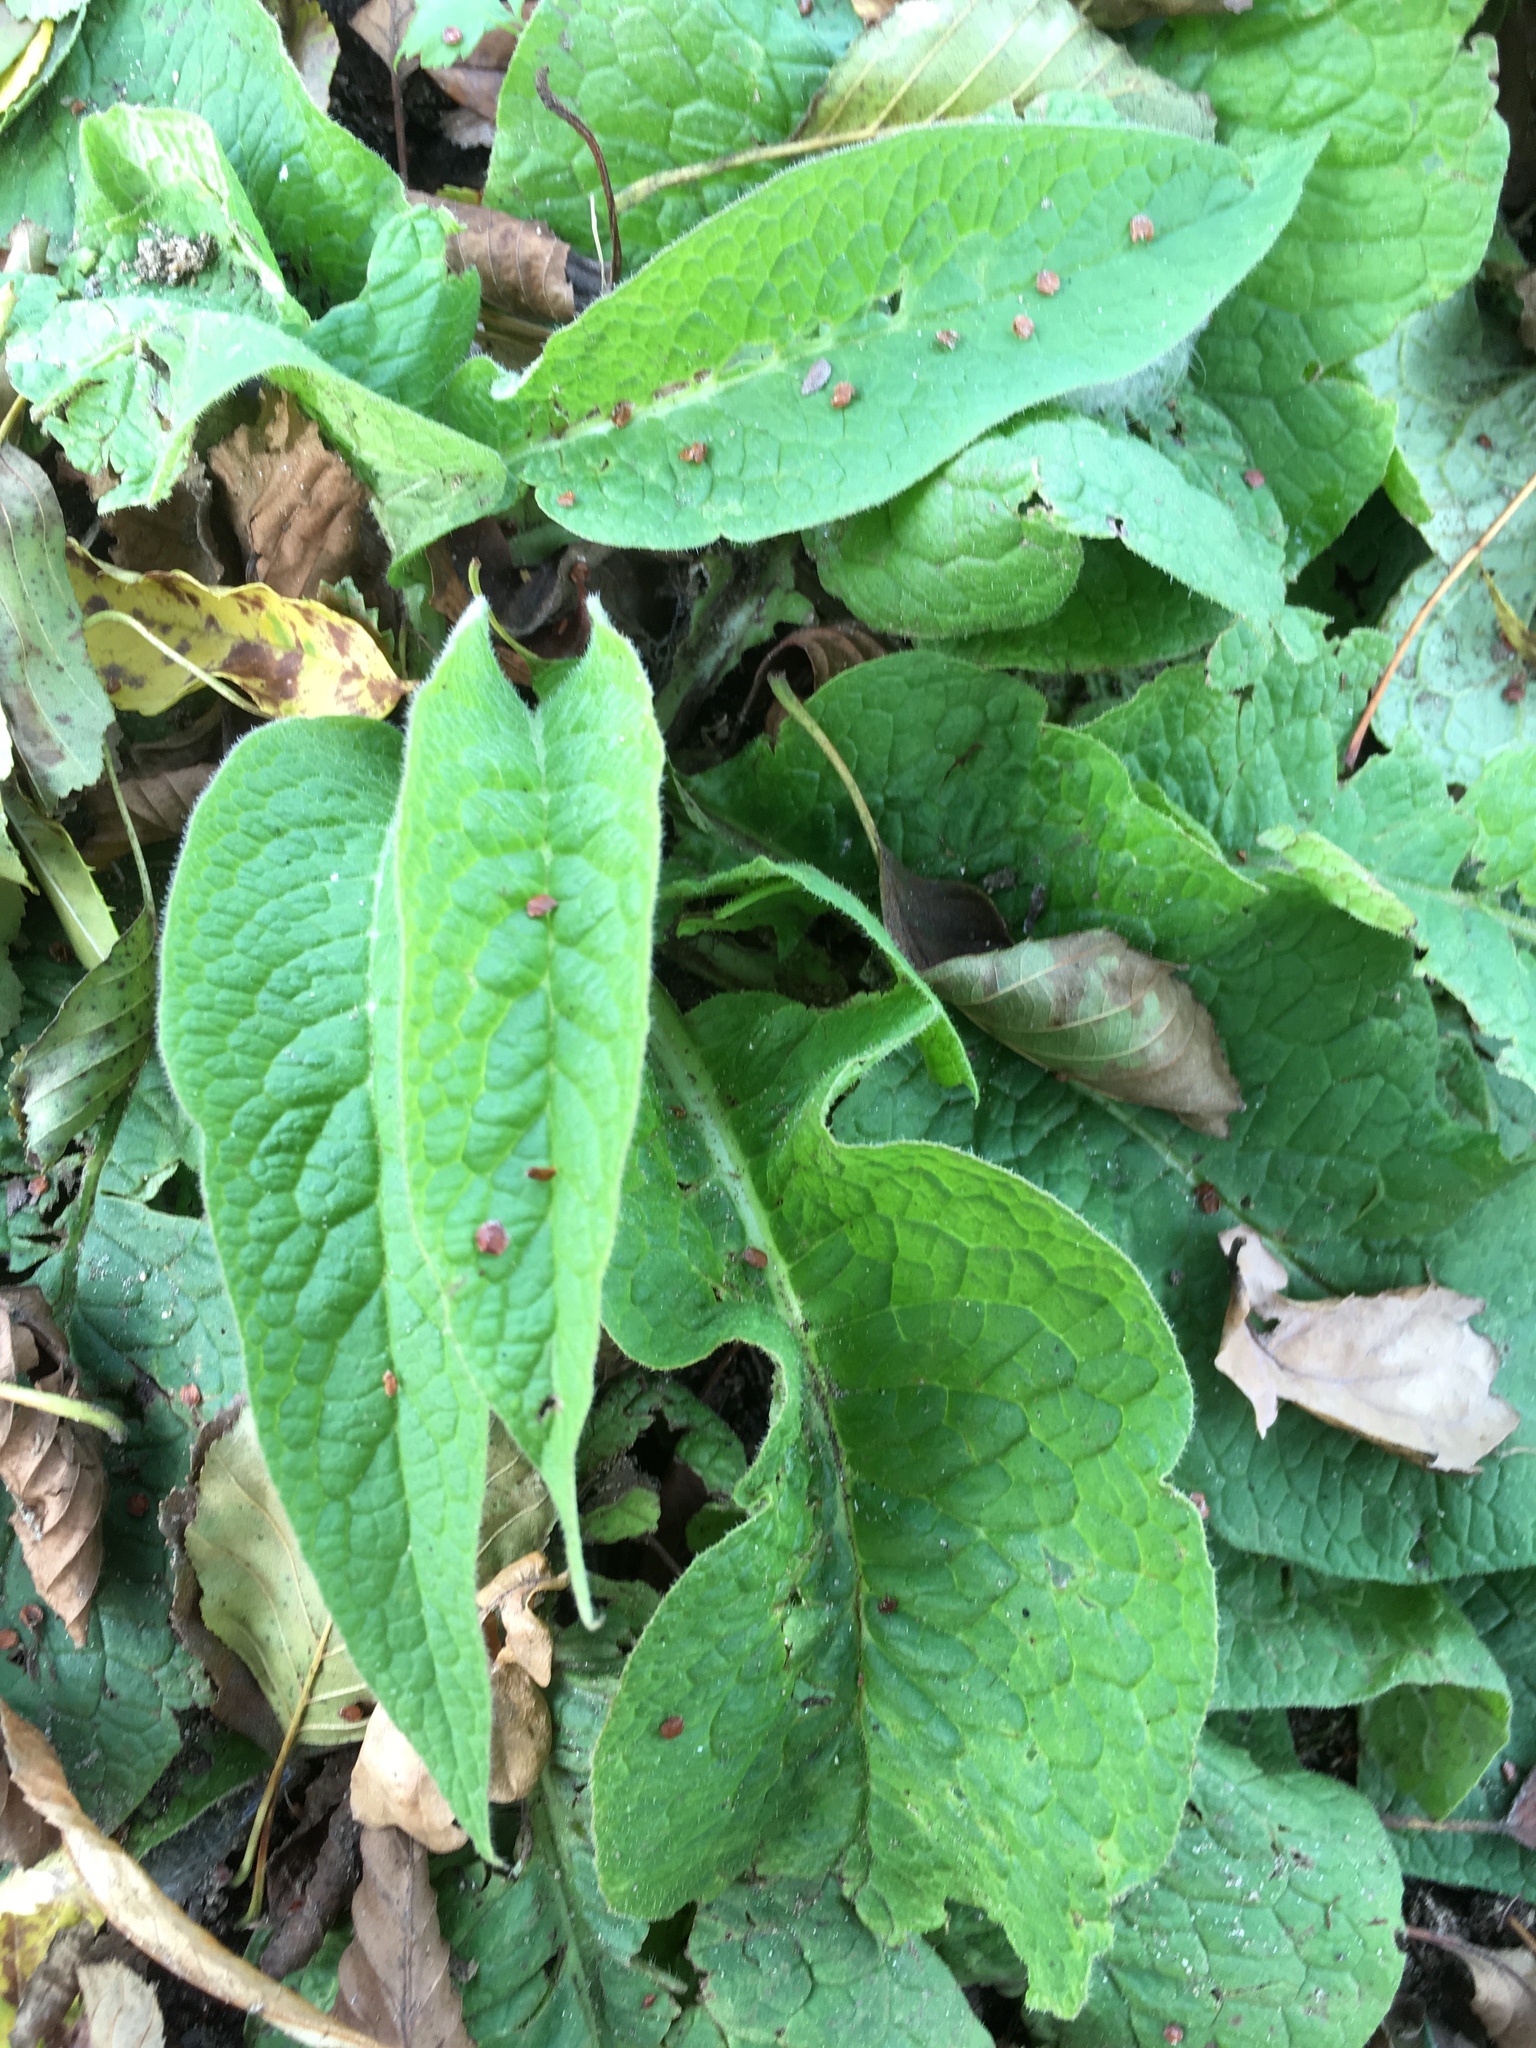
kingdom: Plantae
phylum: Tracheophyta
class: Magnoliopsida
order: Boraginales
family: Boraginaceae
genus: Symphytum
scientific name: Symphytum officinale
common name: Common comfrey
